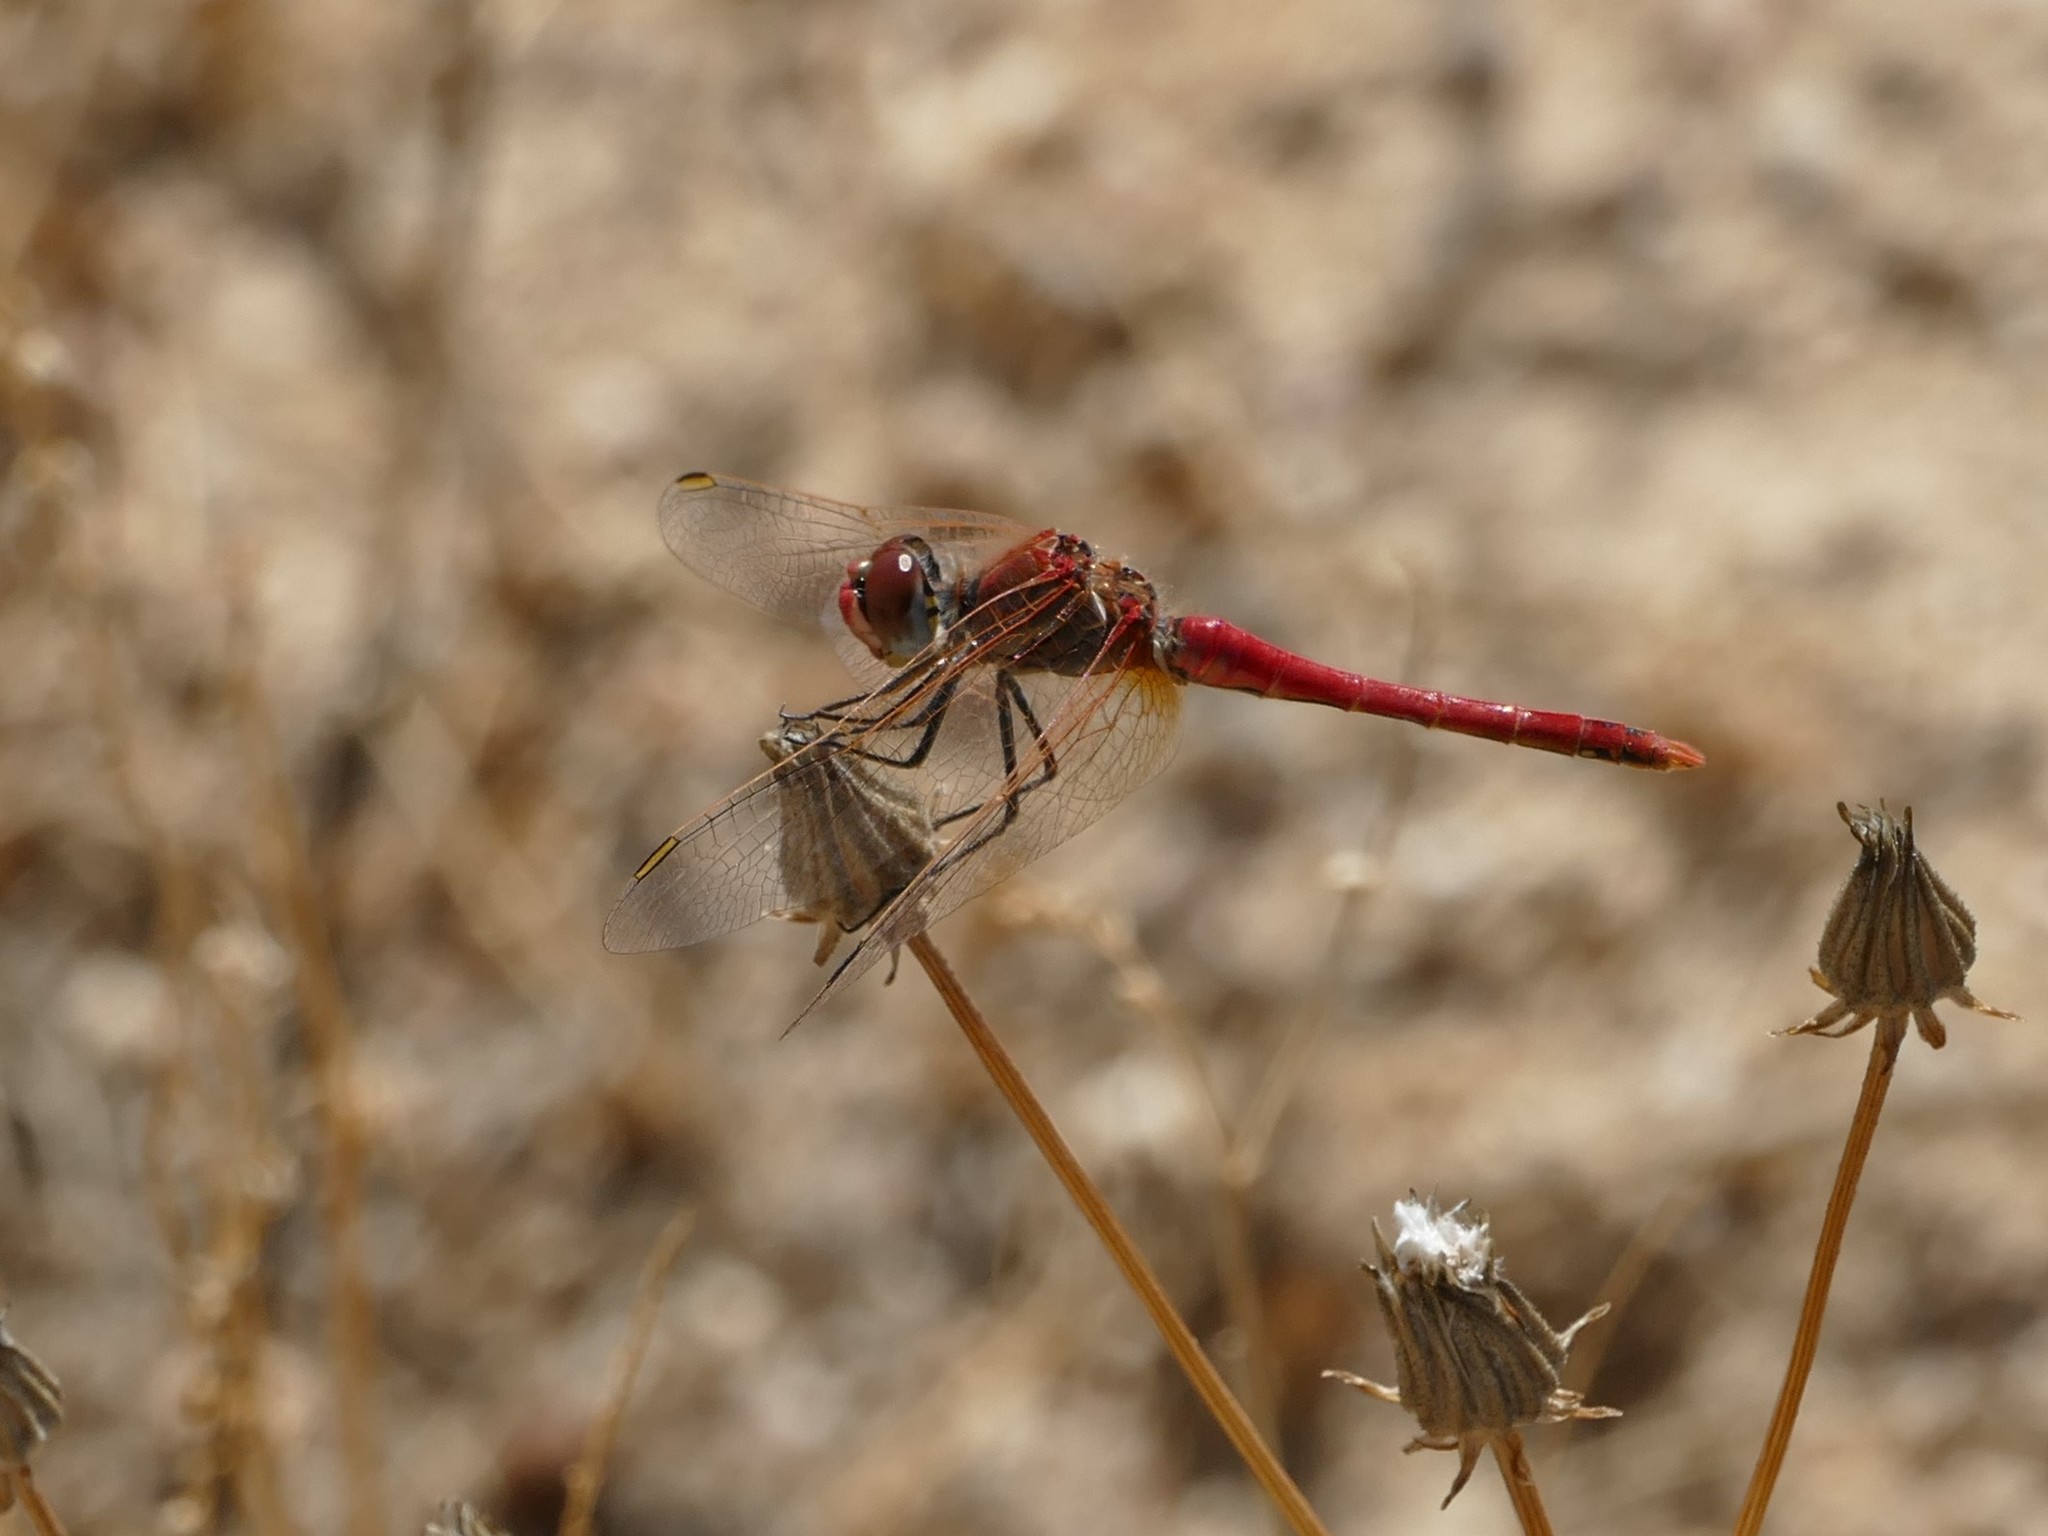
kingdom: Animalia
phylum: Arthropoda
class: Insecta
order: Odonata
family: Libellulidae
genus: Sympetrum
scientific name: Sympetrum fonscolombii
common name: Red-veined darter
